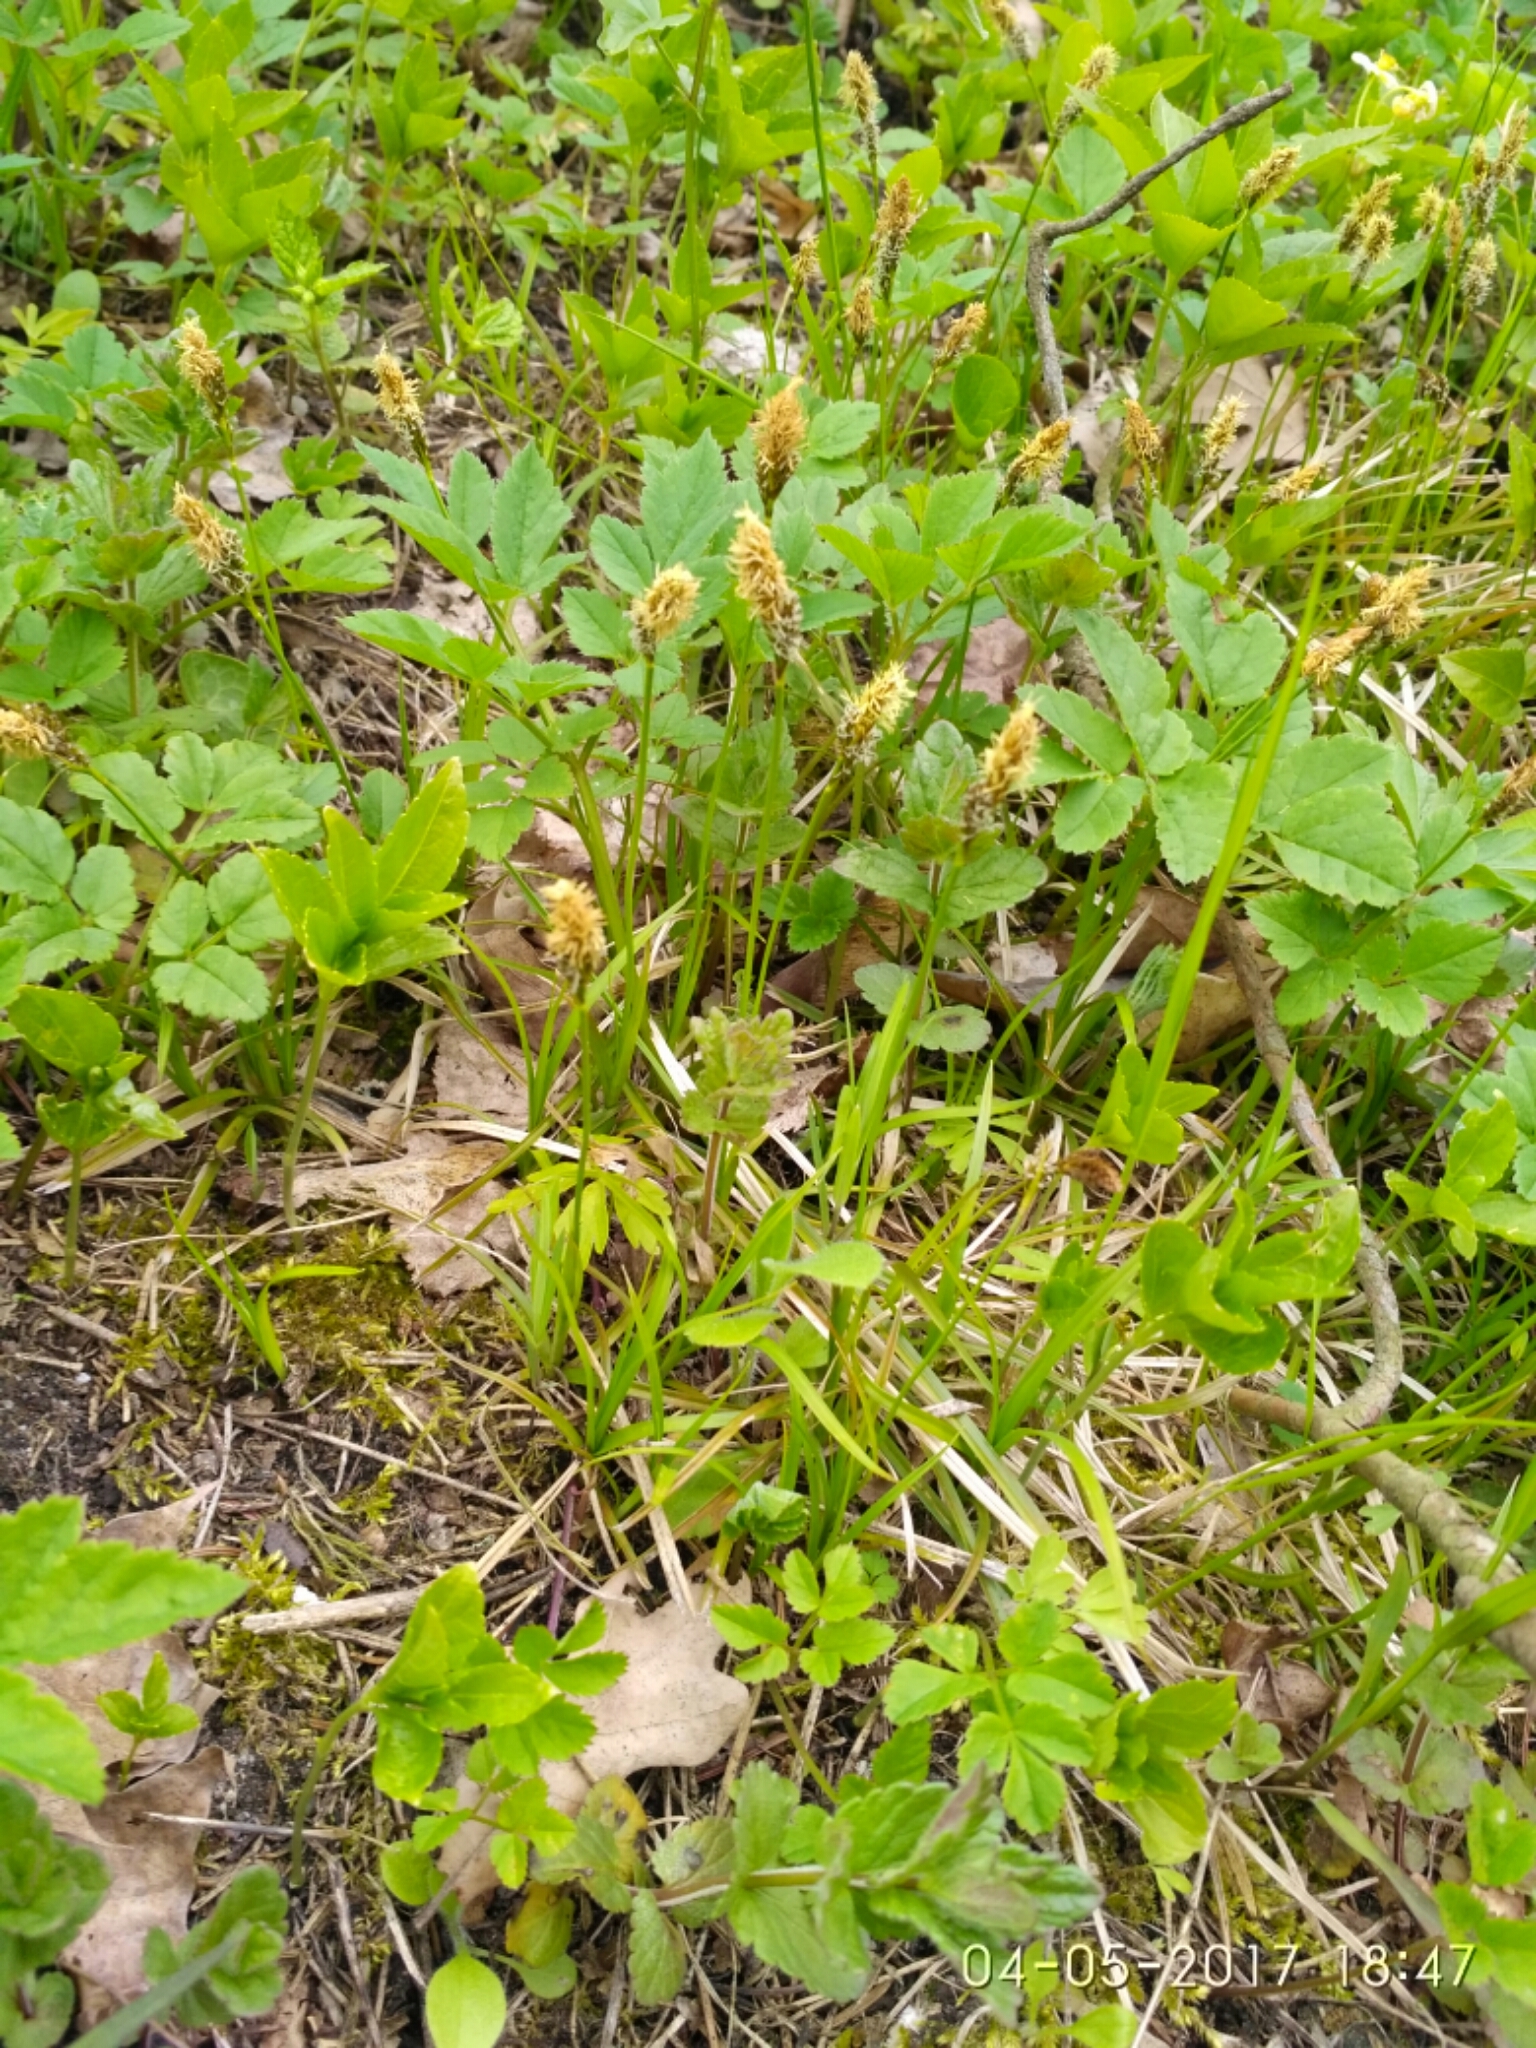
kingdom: Plantae
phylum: Tracheophyta
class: Liliopsida
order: Poales
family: Cyperaceae
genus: Carex
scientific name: Carex caryophyllea
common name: Spring sedge
